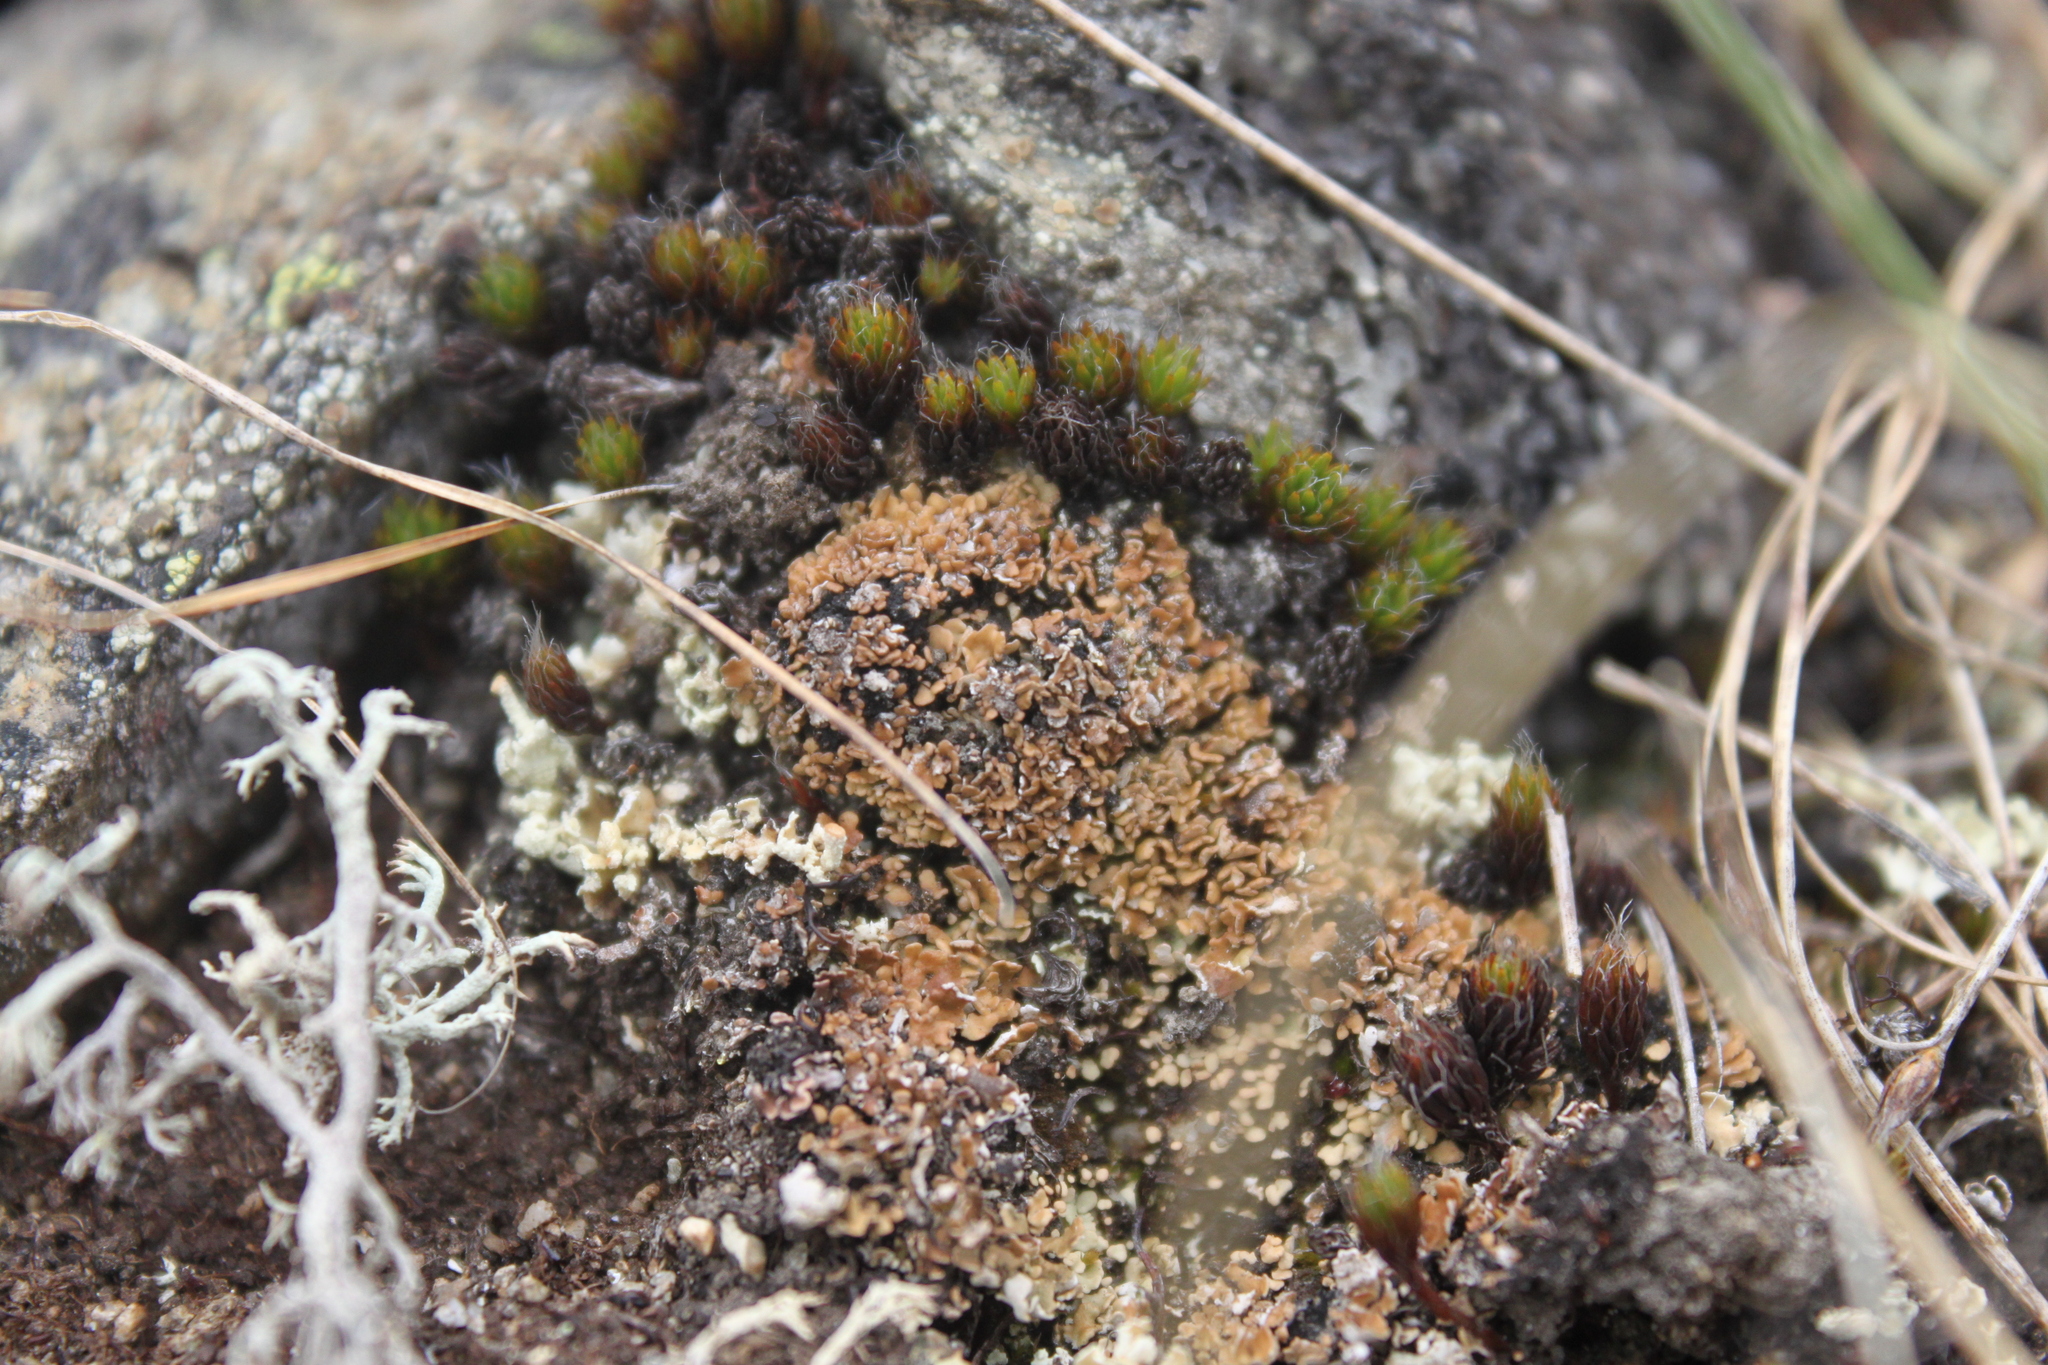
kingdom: Plantae
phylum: Bryophyta
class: Polytrichopsida
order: Polytrichales
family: Polytrichaceae
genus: Polytrichum
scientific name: Polytrichum piliferum
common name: Bristly haircap
